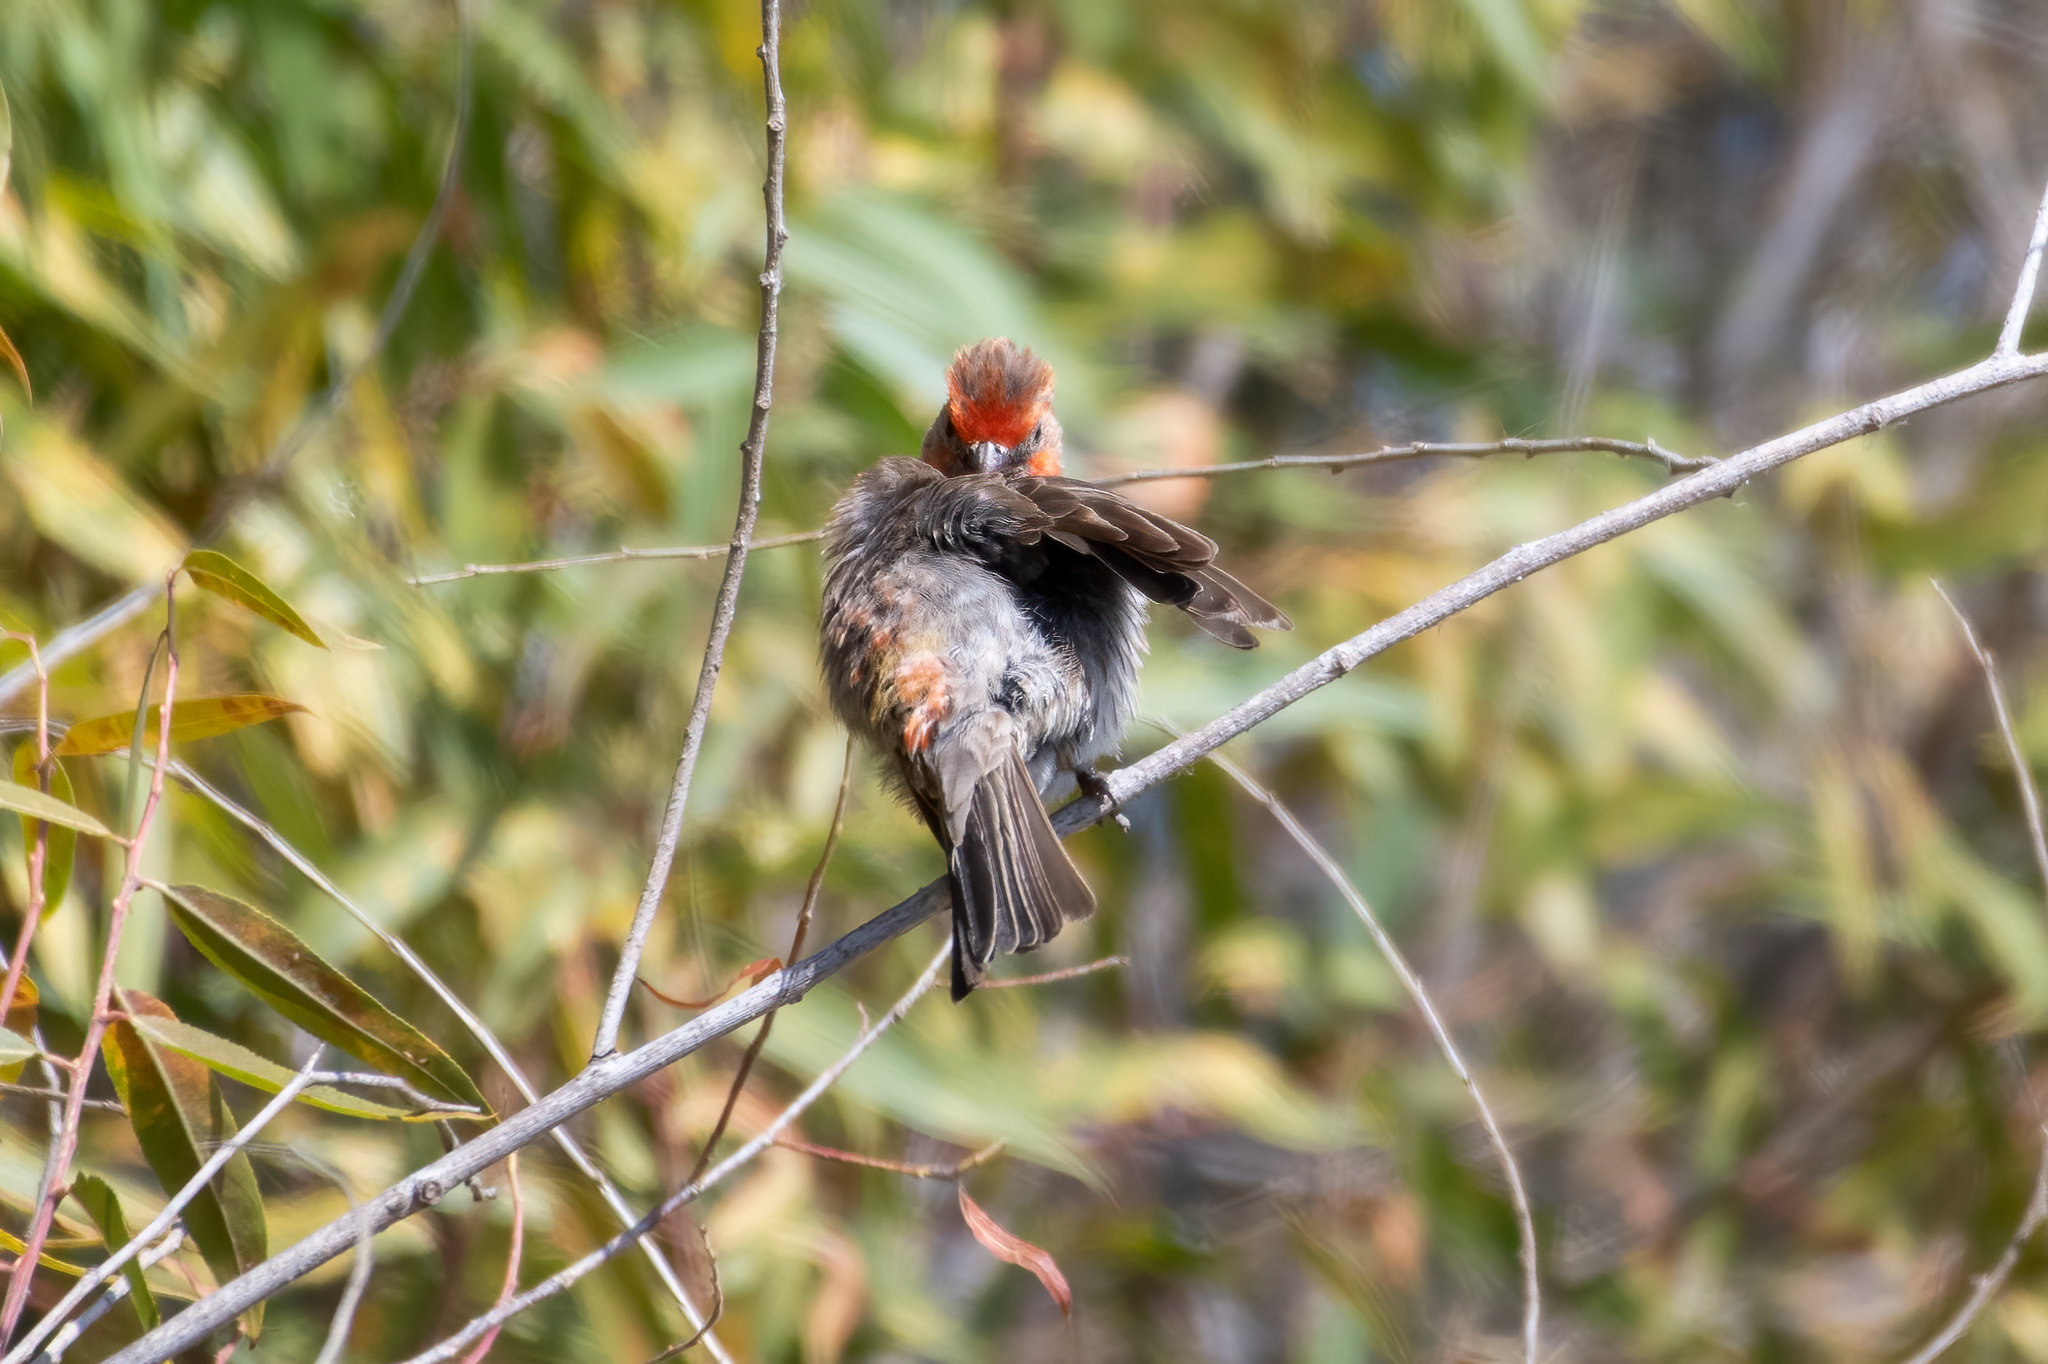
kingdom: Animalia
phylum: Chordata
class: Aves
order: Passeriformes
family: Fringillidae
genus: Haemorhous
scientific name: Haemorhous mexicanus
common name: House finch
